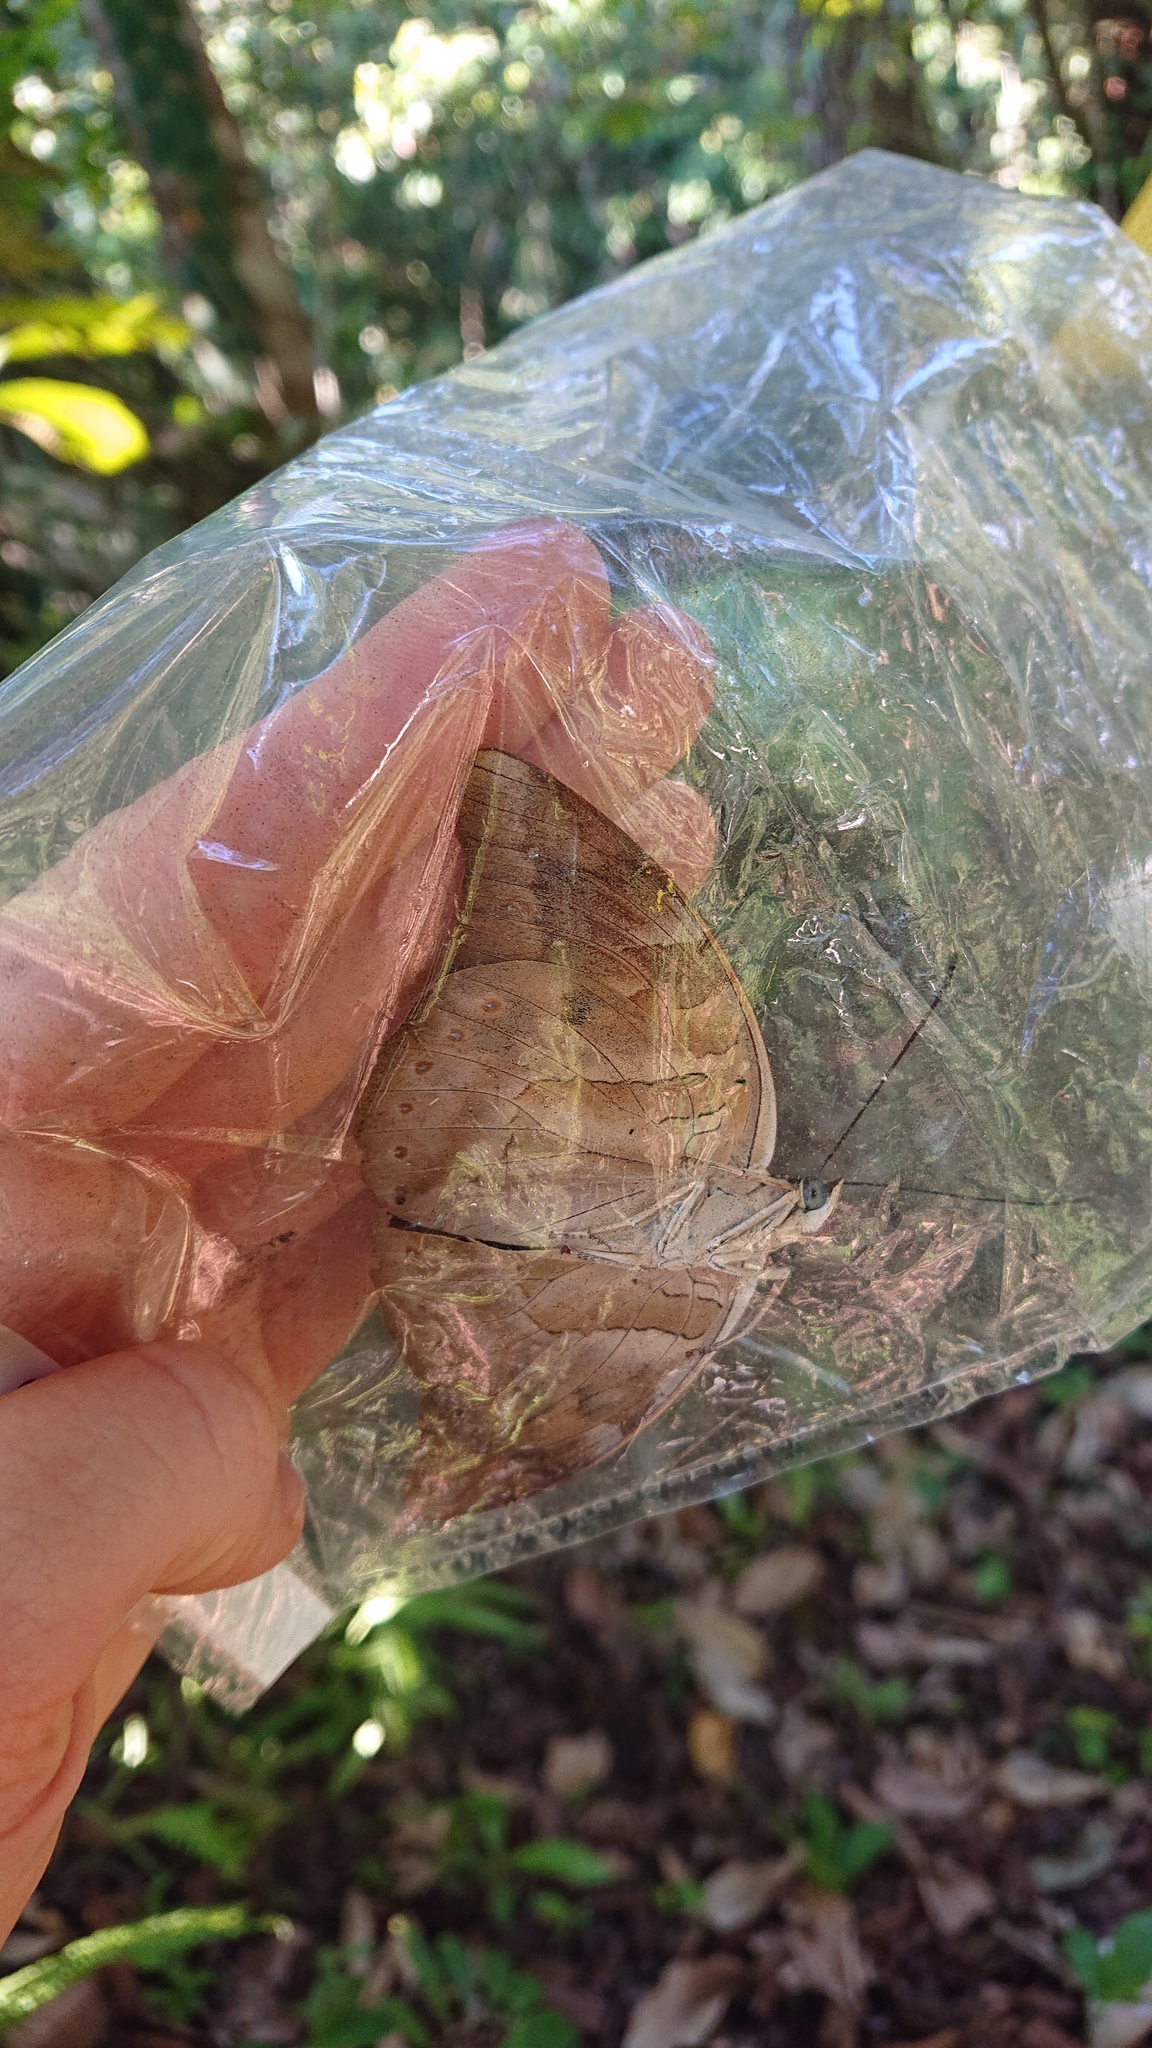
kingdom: Animalia
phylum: Arthropoda
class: Insecta
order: Lepidoptera
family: Nymphalidae
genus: Prepona
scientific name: Prepona demophon
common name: One-spotted prepona
